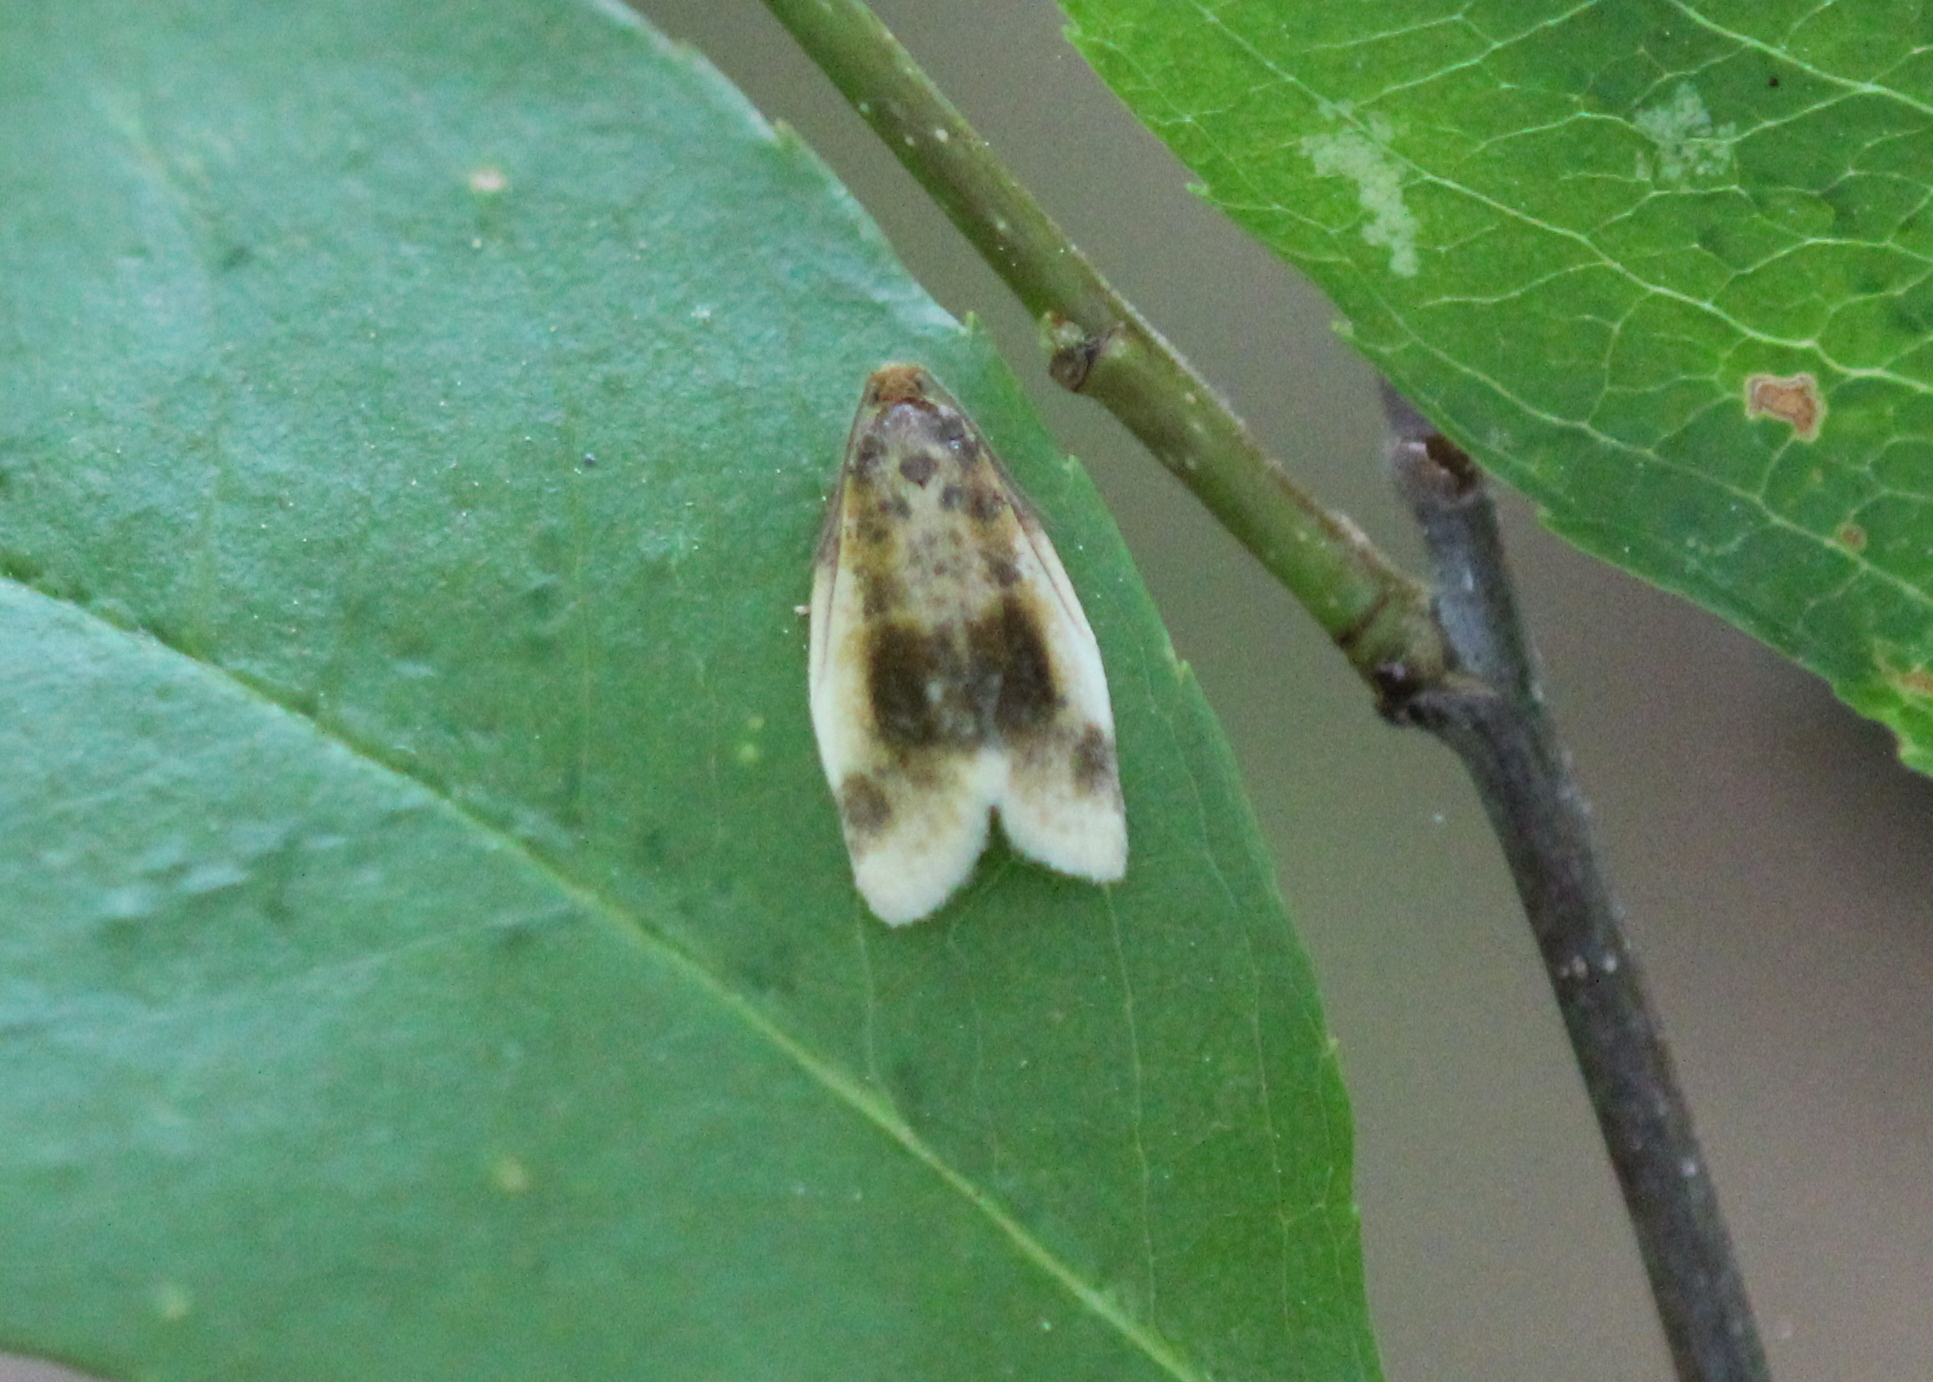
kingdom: Animalia
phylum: Arthropoda
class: Insecta
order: Lepidoptera
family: Tortricidae
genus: Clepsis
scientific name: Clepsis melaleucanus
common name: American apple tortrix
